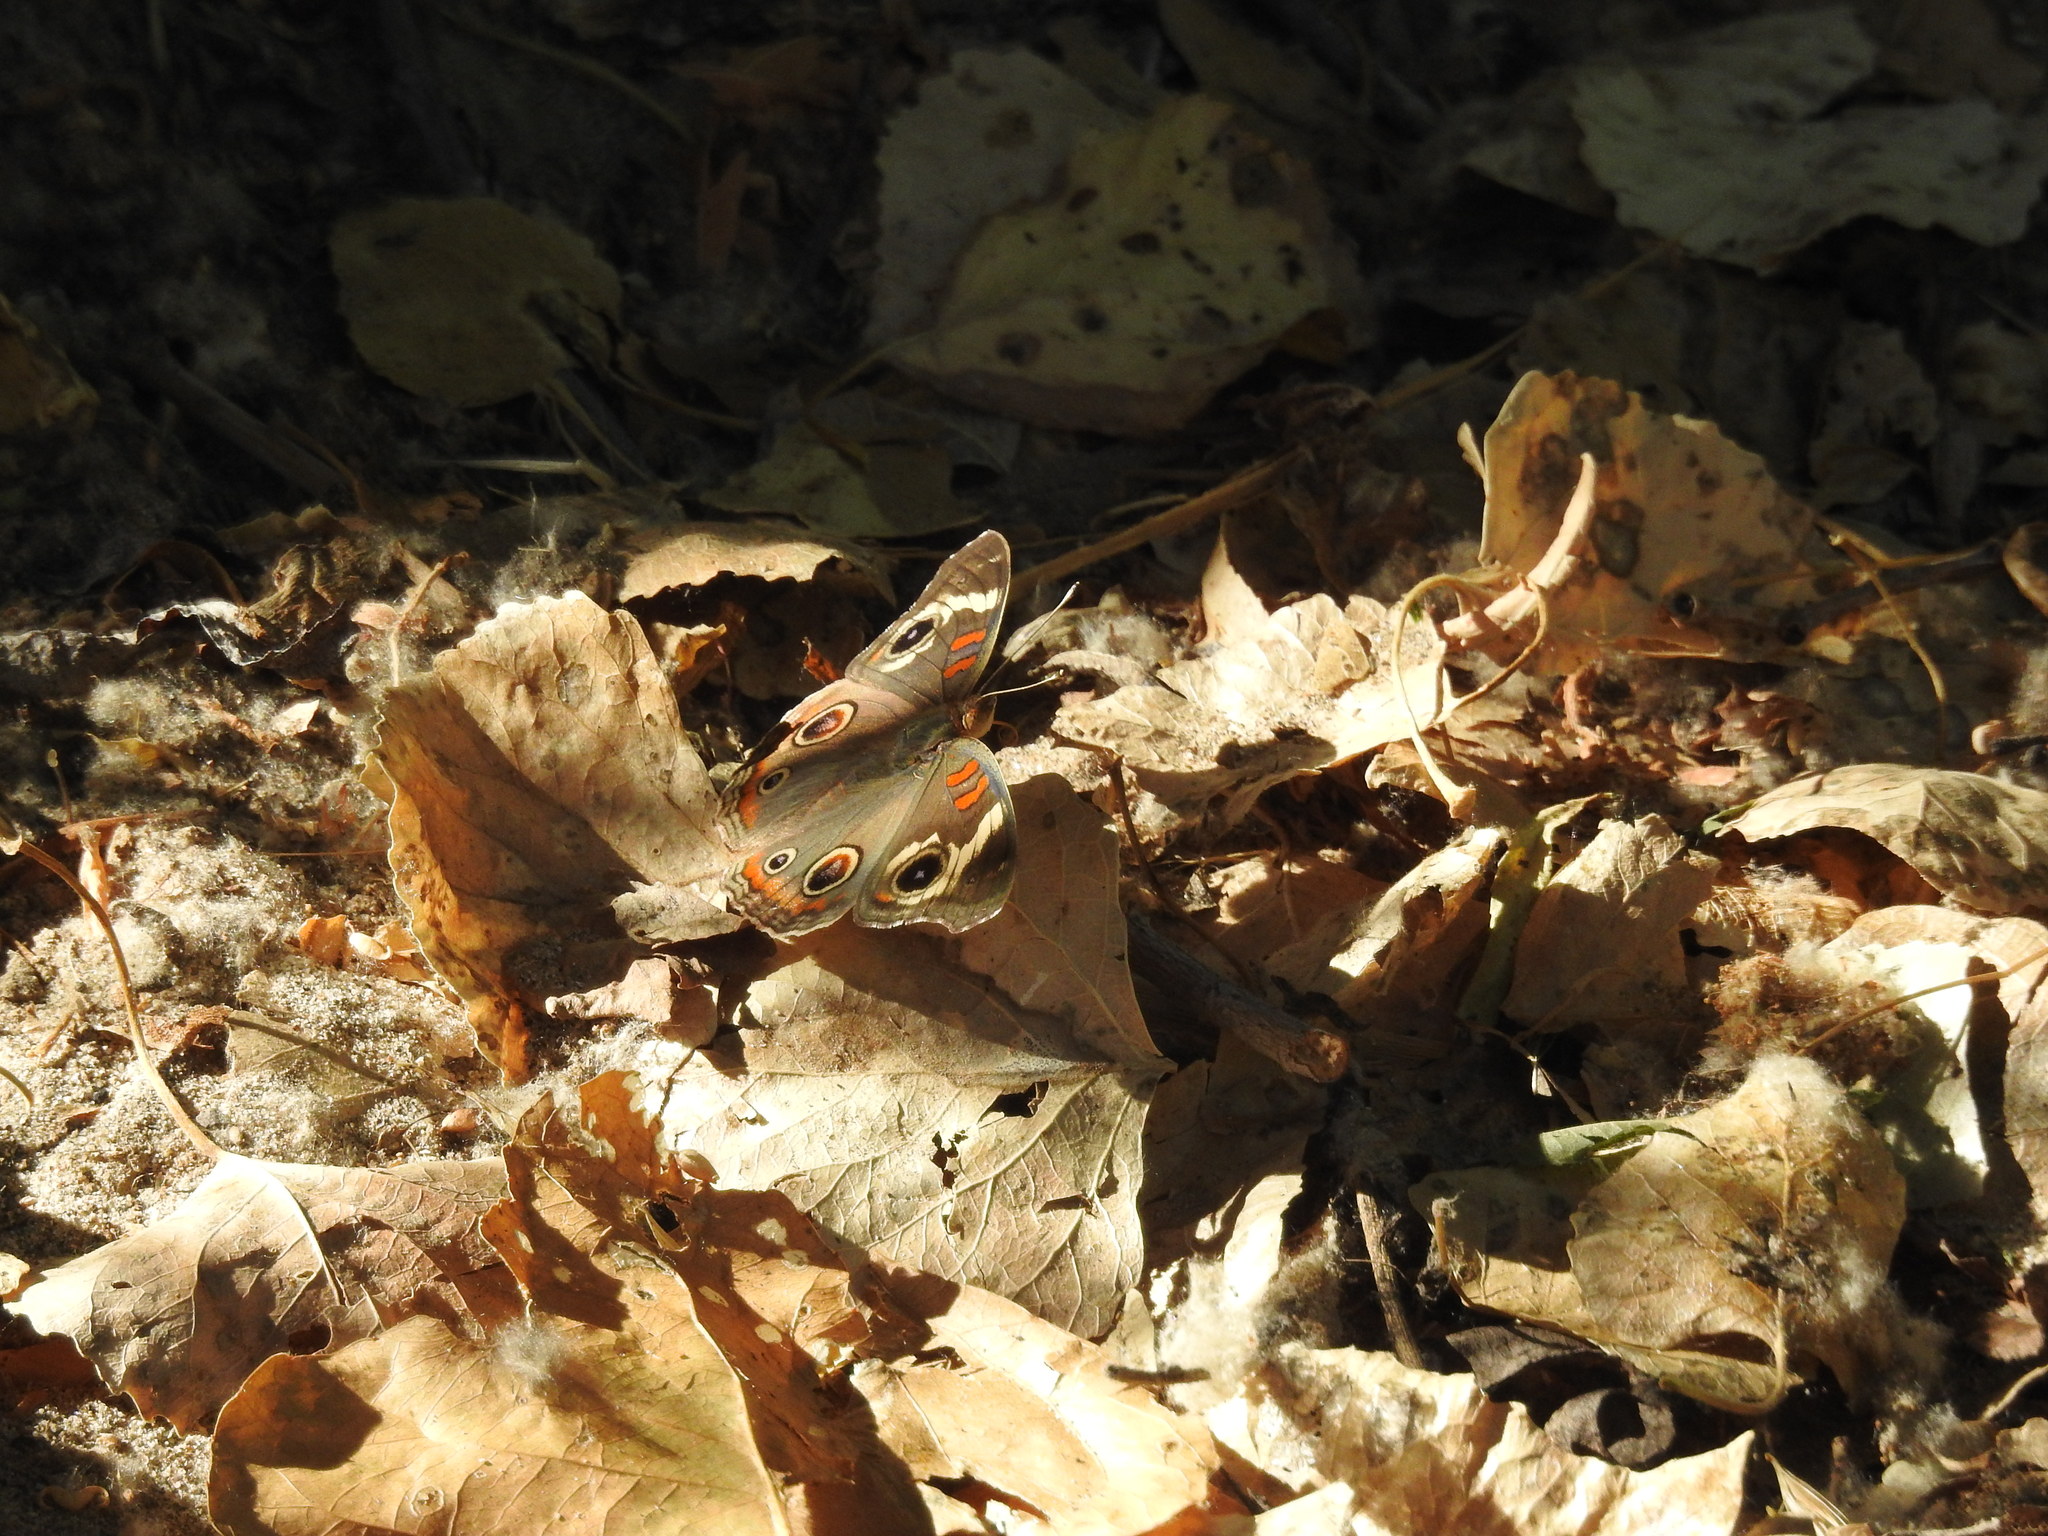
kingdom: Animalia
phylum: Arthropoda
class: Insecta
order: Lepidoptera
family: Nymphalidae
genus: Junonia
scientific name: Junonia grisea
